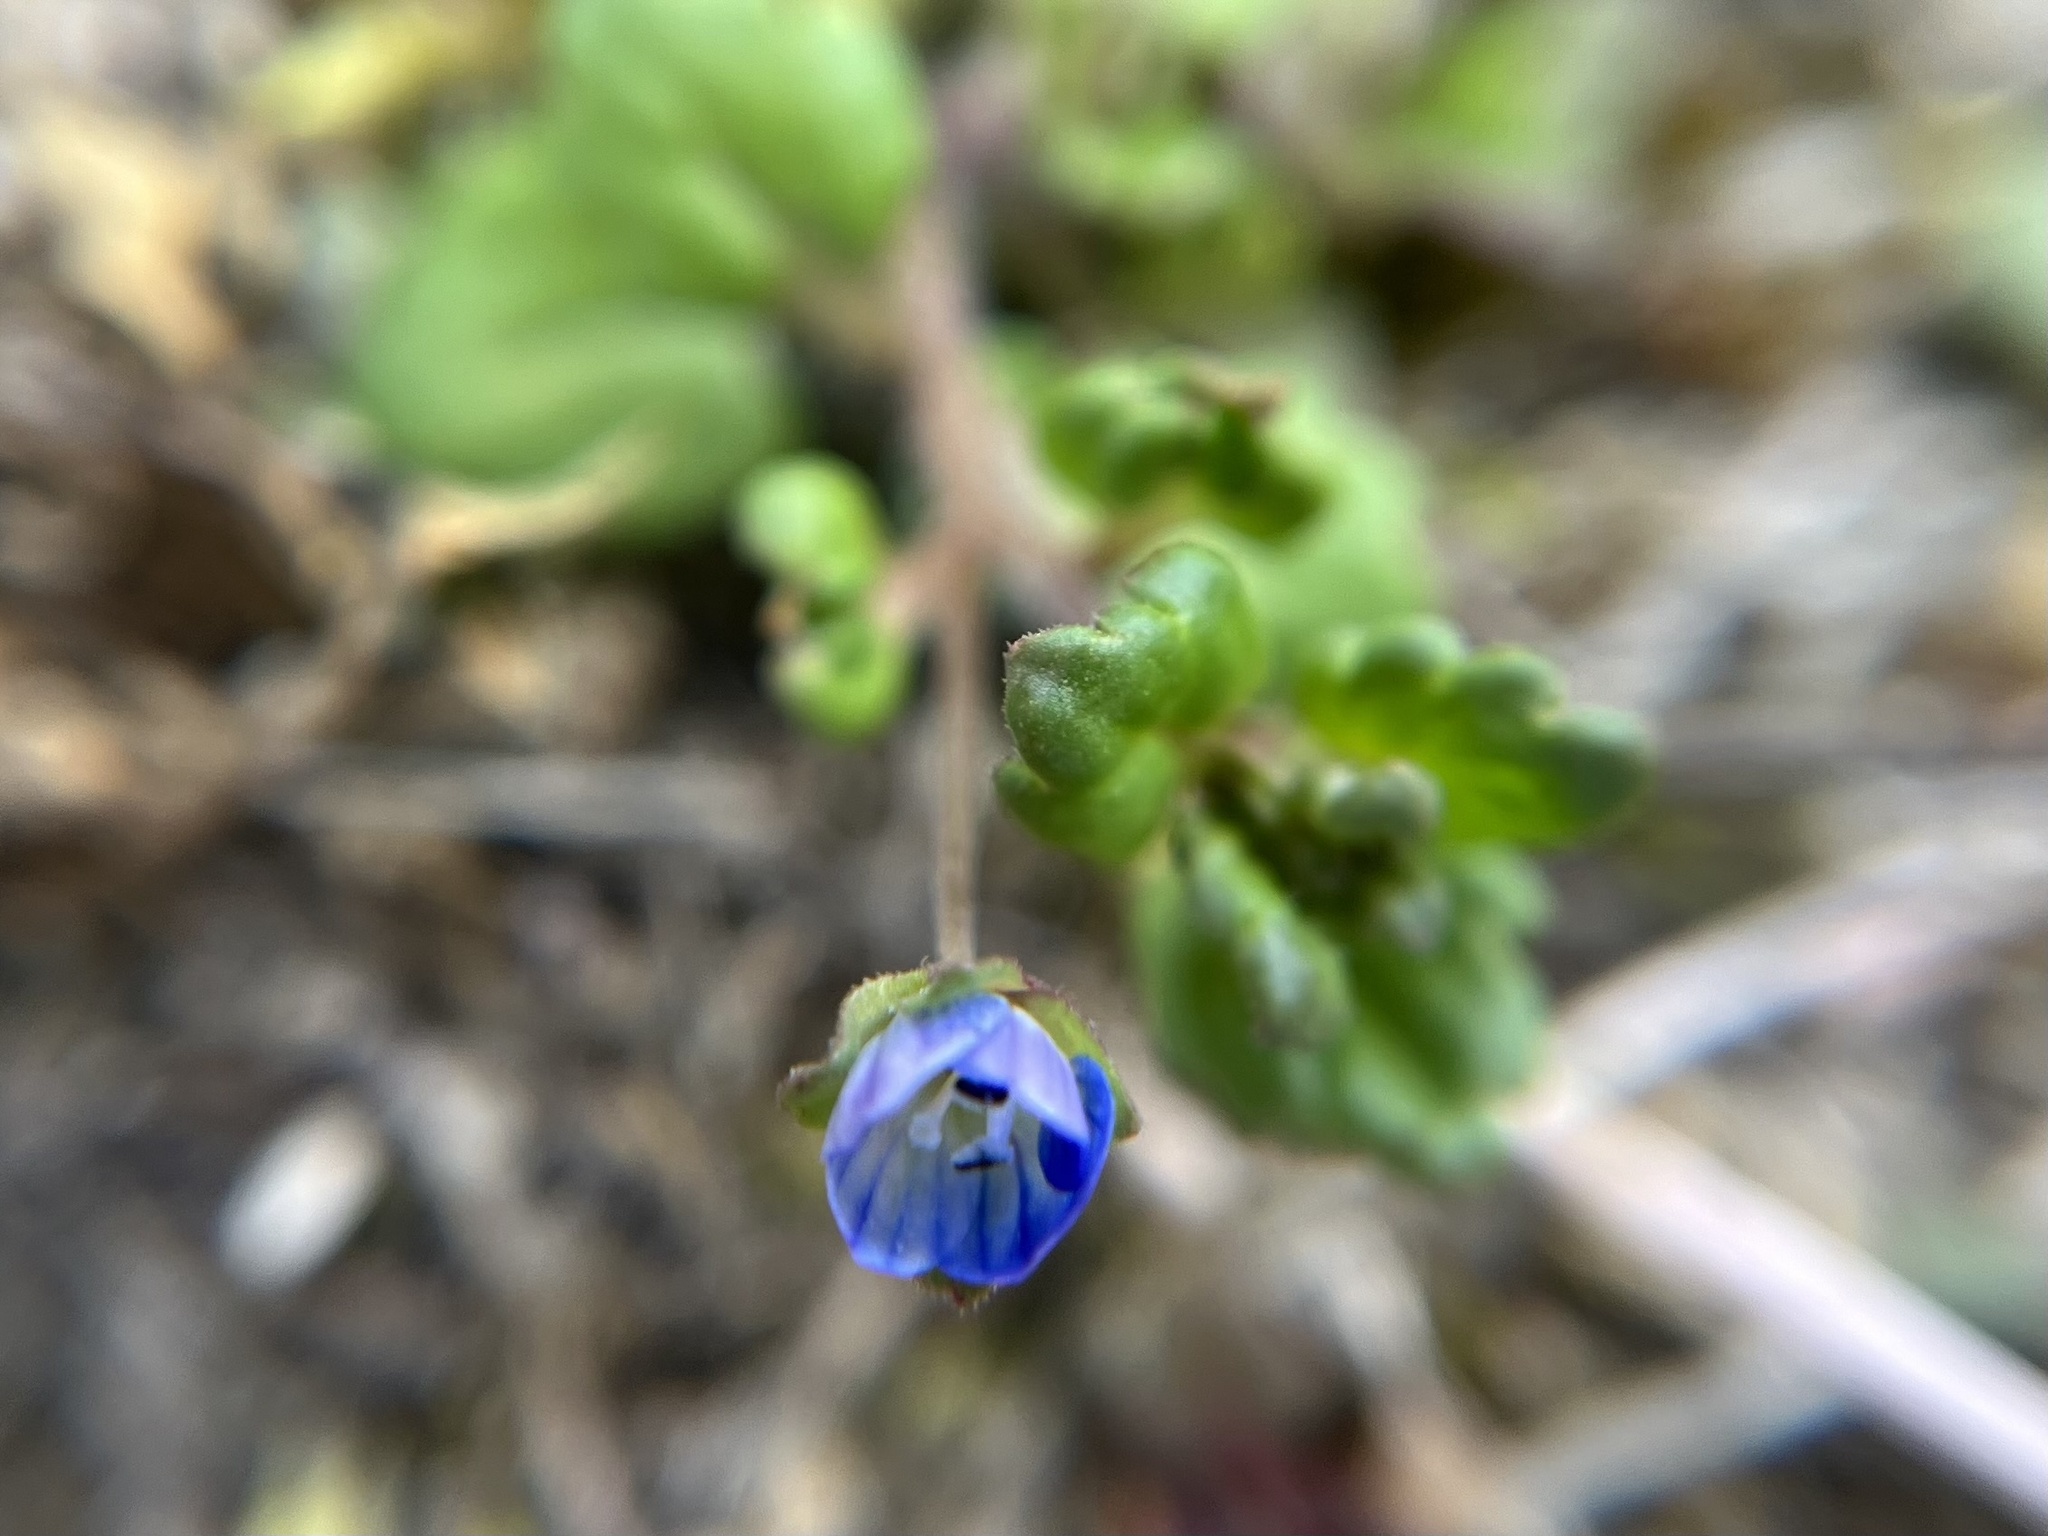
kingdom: Plantae
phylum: Tracheophyta
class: Magnoliopsida
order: Lamiales
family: Plantaginaceae
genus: Veronica
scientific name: Veronica polita
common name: Grey field-speedwell
